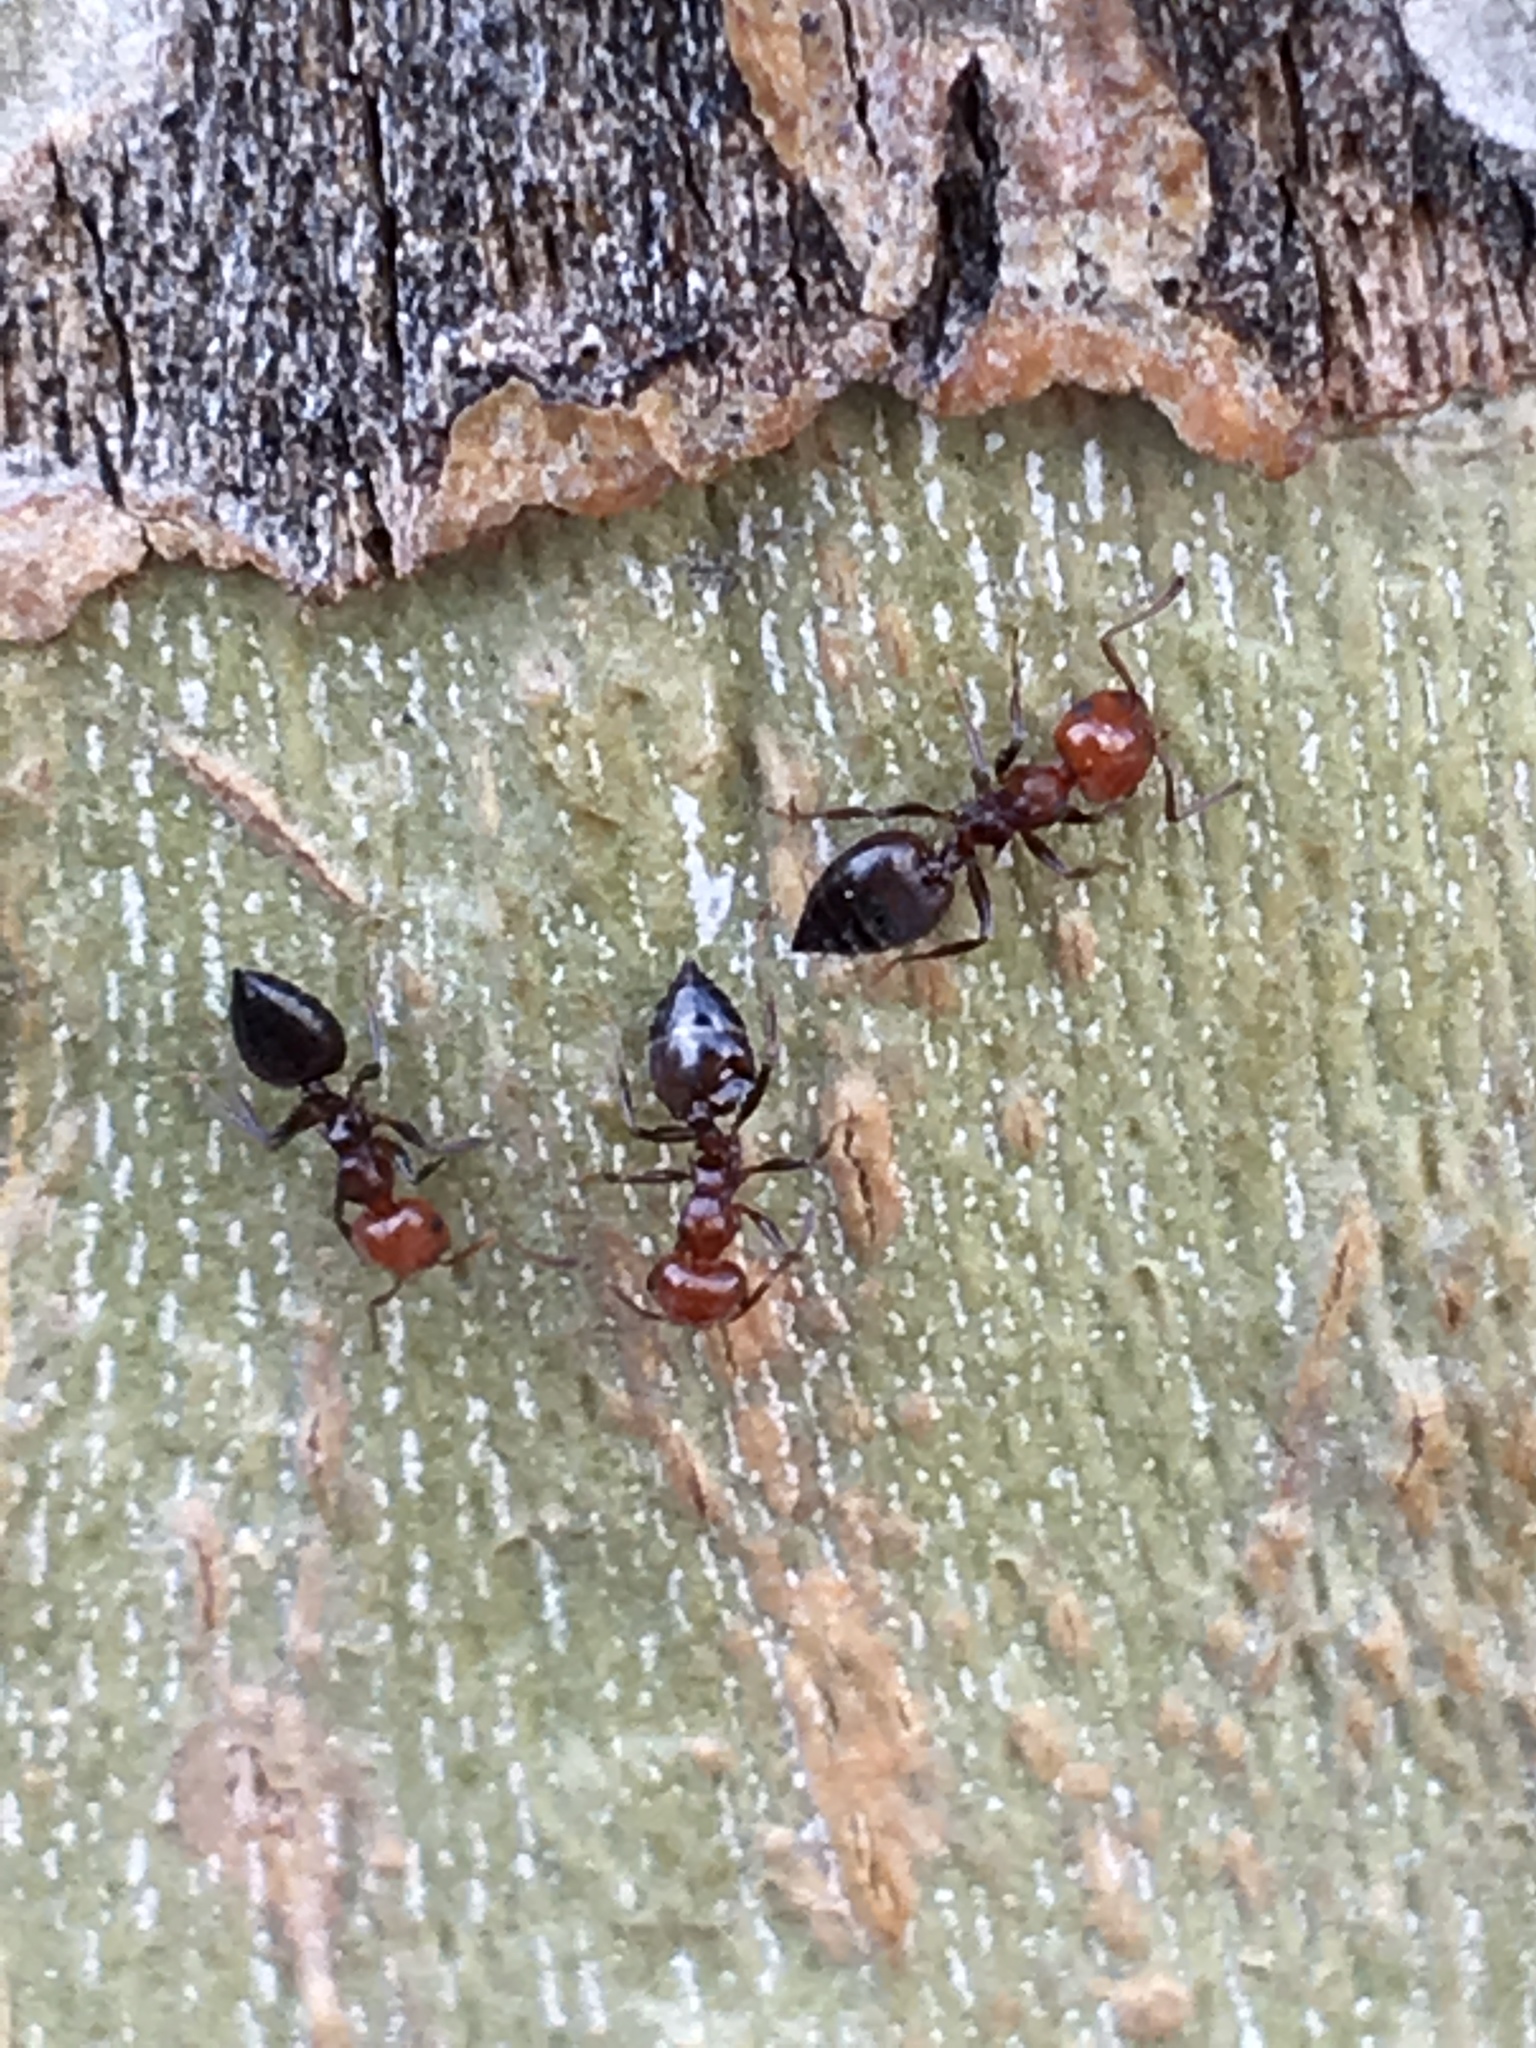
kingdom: Animalia
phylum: Arthropoda
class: Insecta
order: Hymenoptera
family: Formicidae
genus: Crematogaster
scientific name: Crematogaster scutellaris
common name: Fourmi du liège
